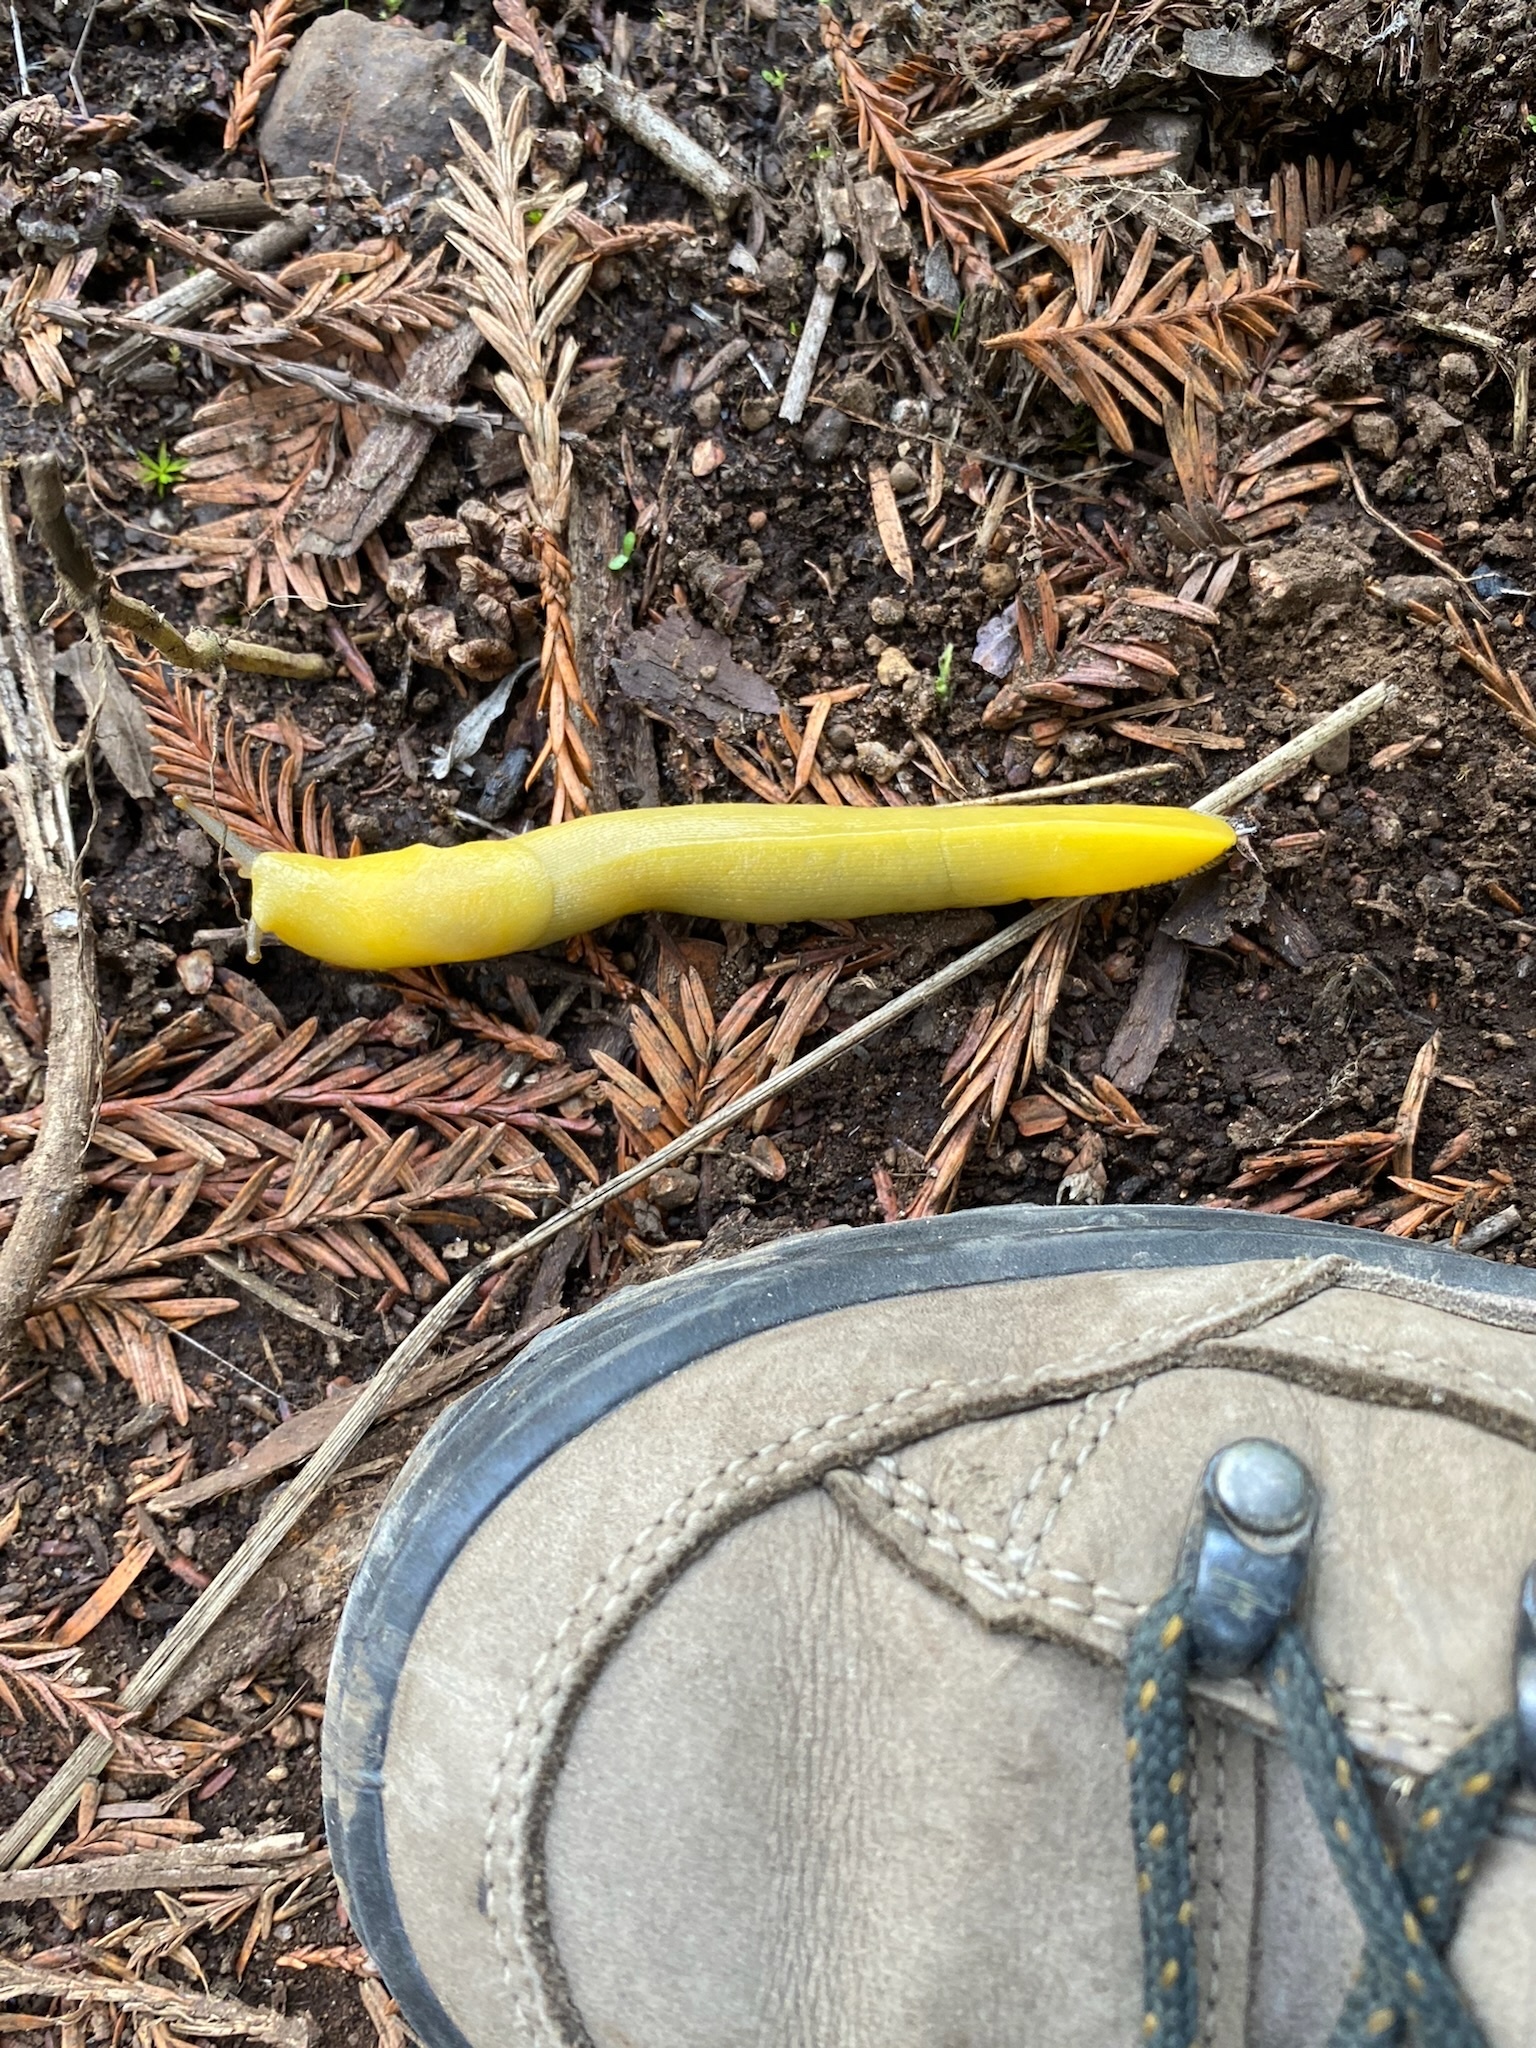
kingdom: Animalia
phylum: Mollusca
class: Gastropoda
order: Stylommatophora
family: Ariolimacidae
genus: Ariolimax
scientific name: Ariolimax stramineus
